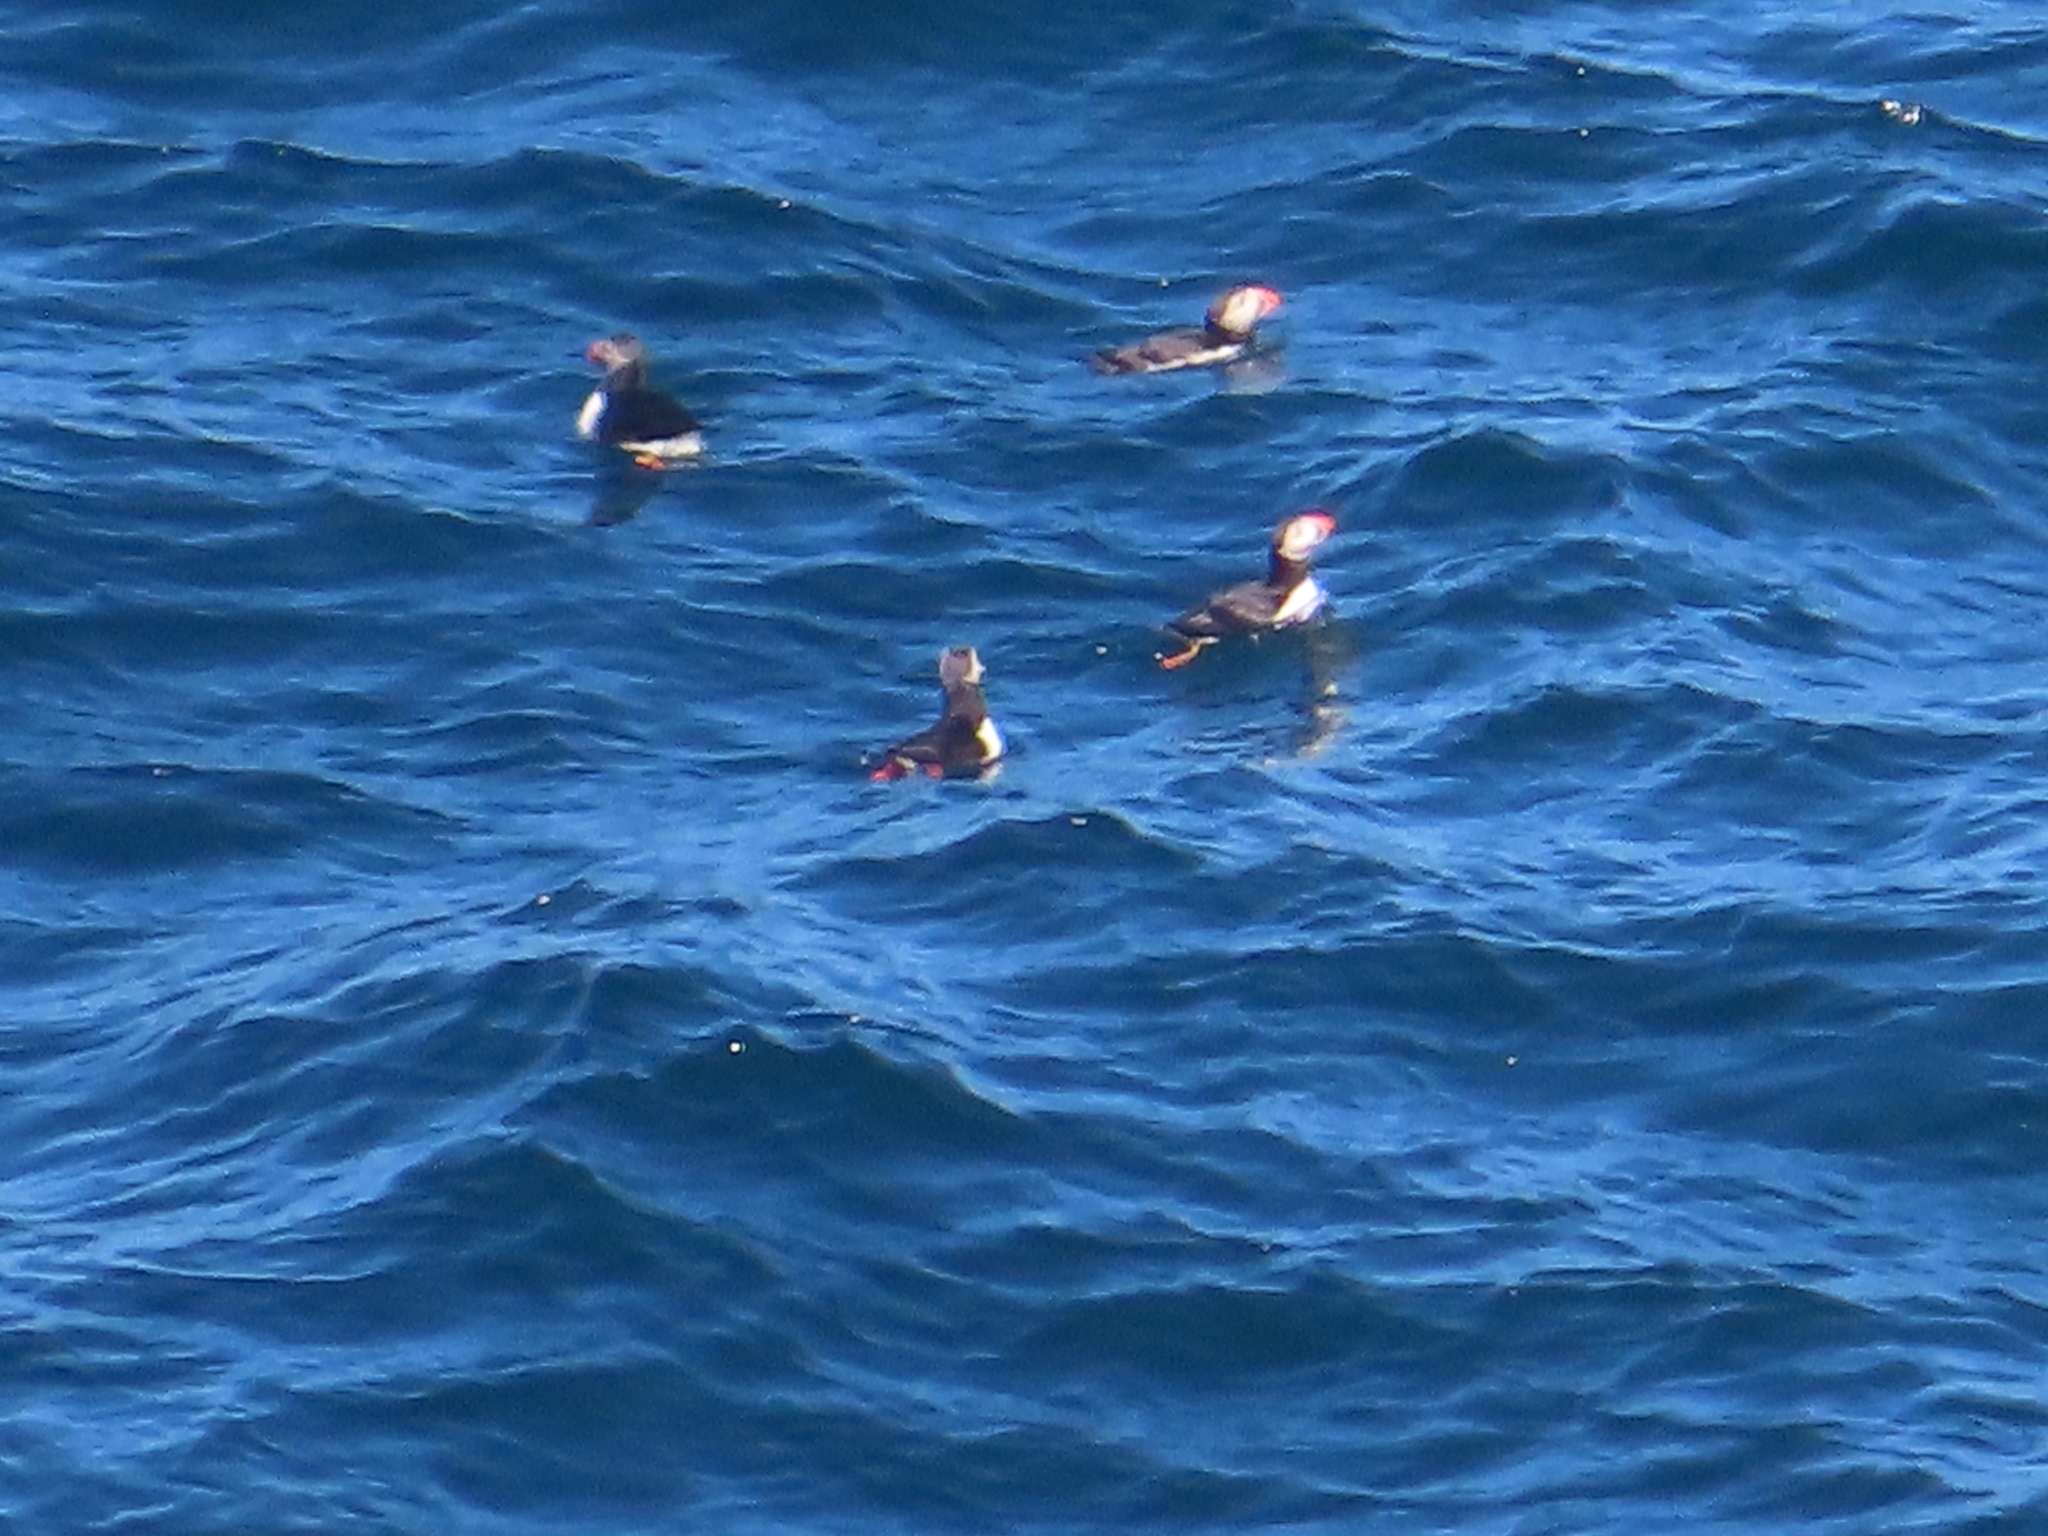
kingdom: Animalia
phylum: Chordata
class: Aves
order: Charadriiformes
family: Alcidae
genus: Fratercula
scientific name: Fratercula arctica
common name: Atlantic puffin
